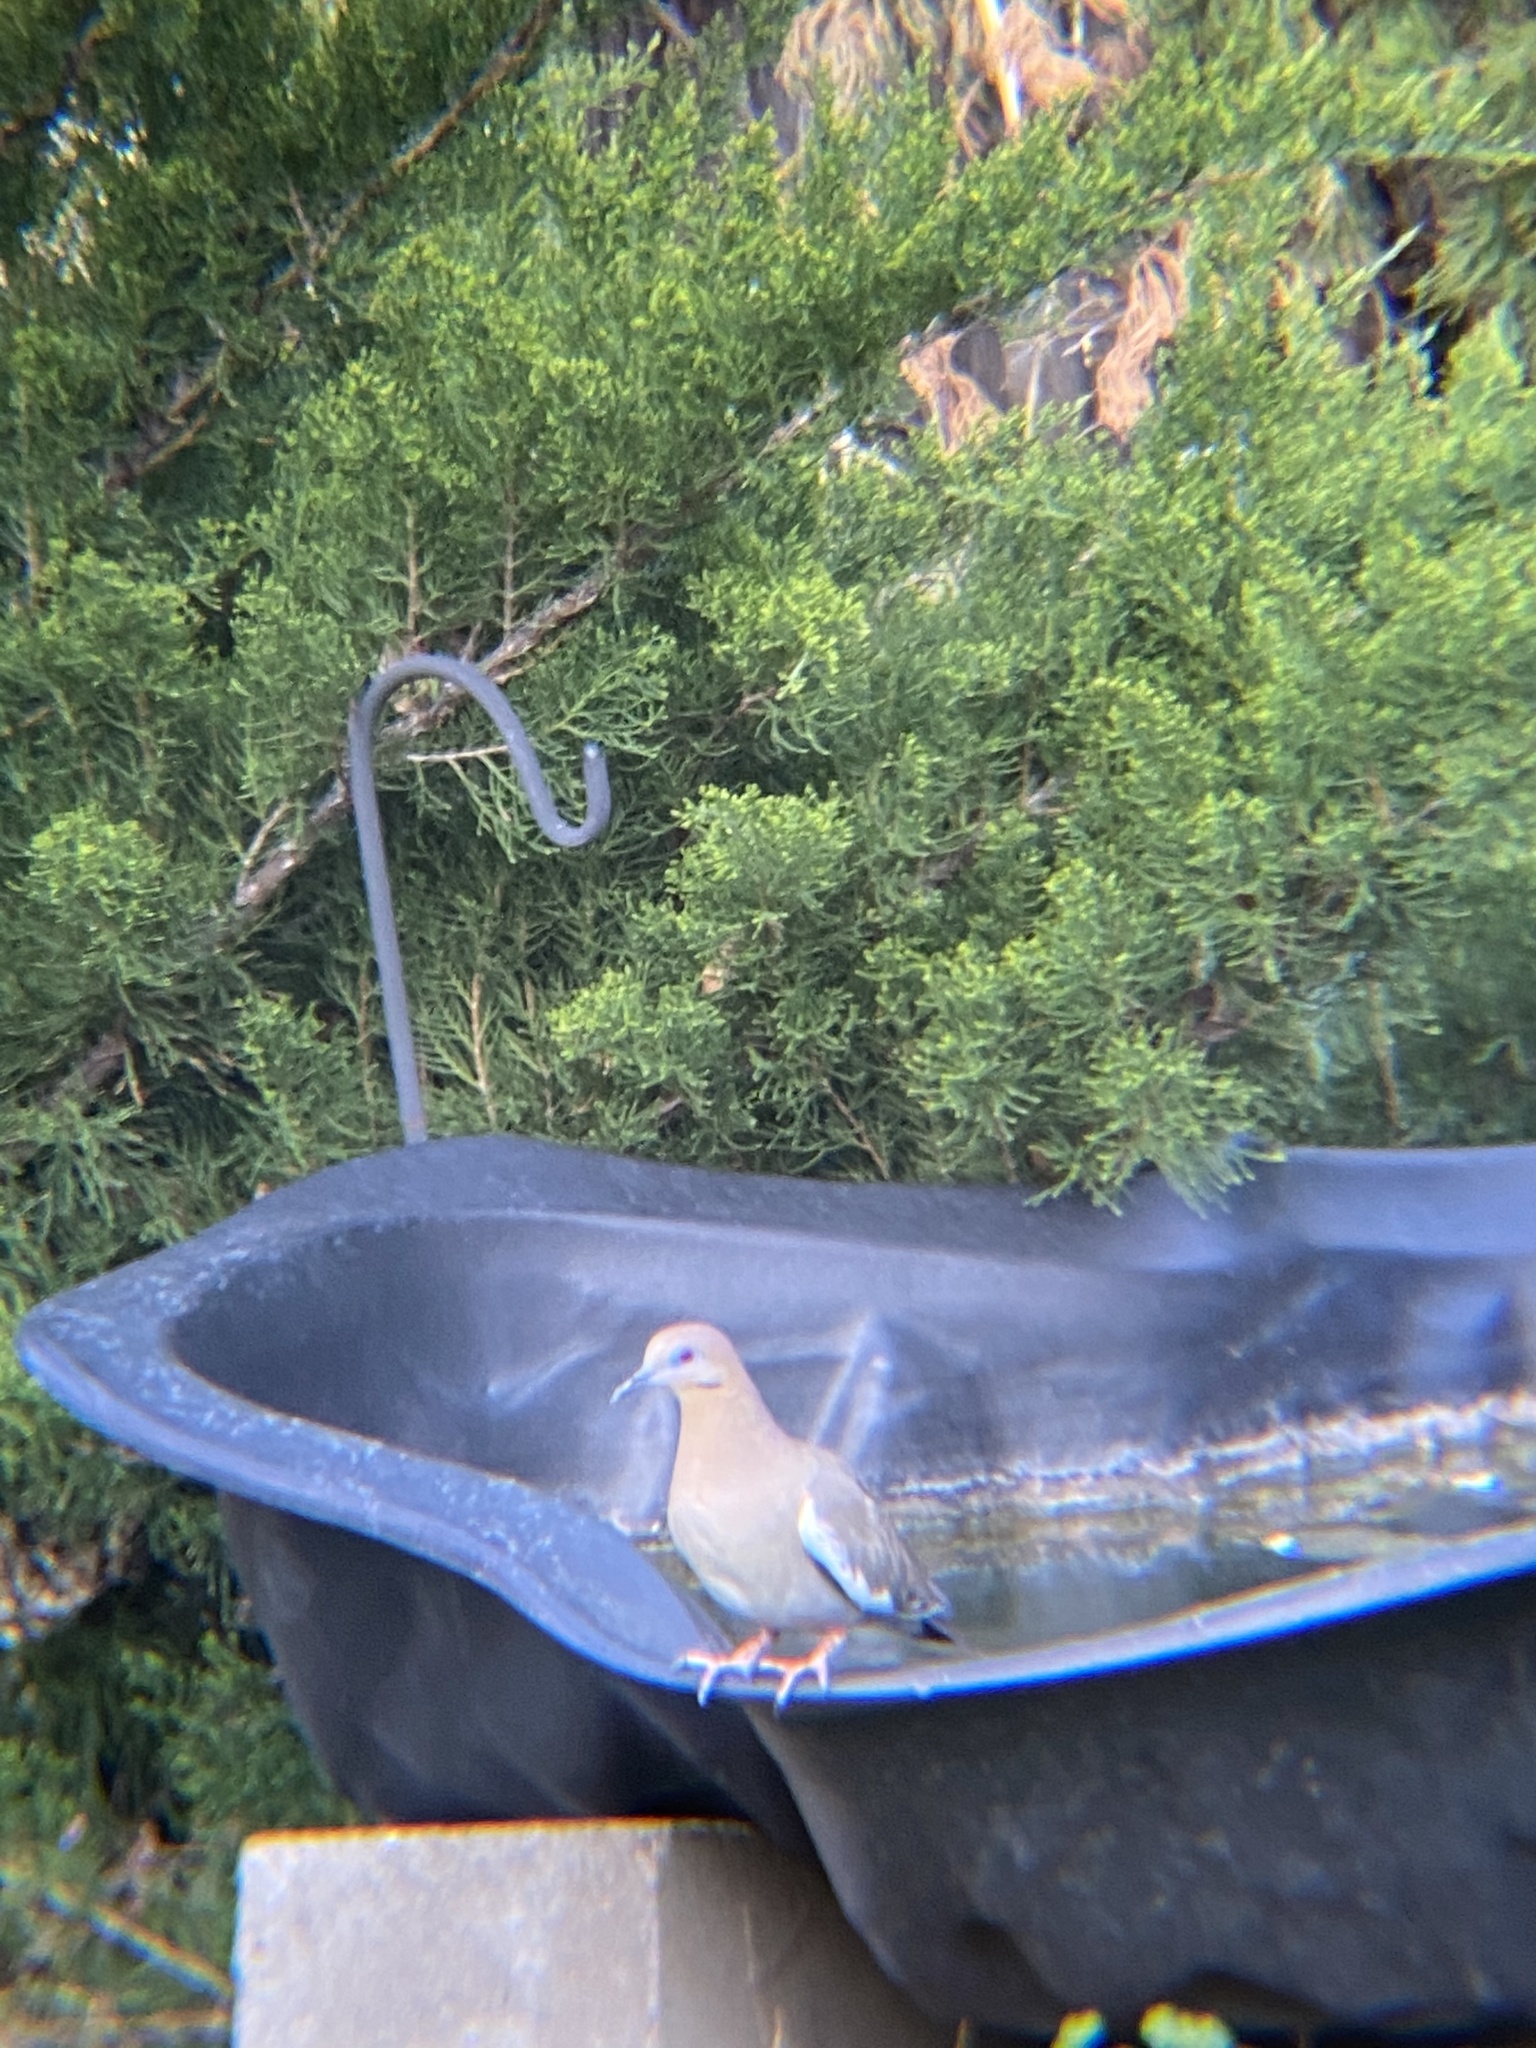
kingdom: Animalia
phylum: Chordata
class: Aves
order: Columbiformes
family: Columbidae
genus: Zenaida
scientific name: Zenaida asiatica
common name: White-winged dove
